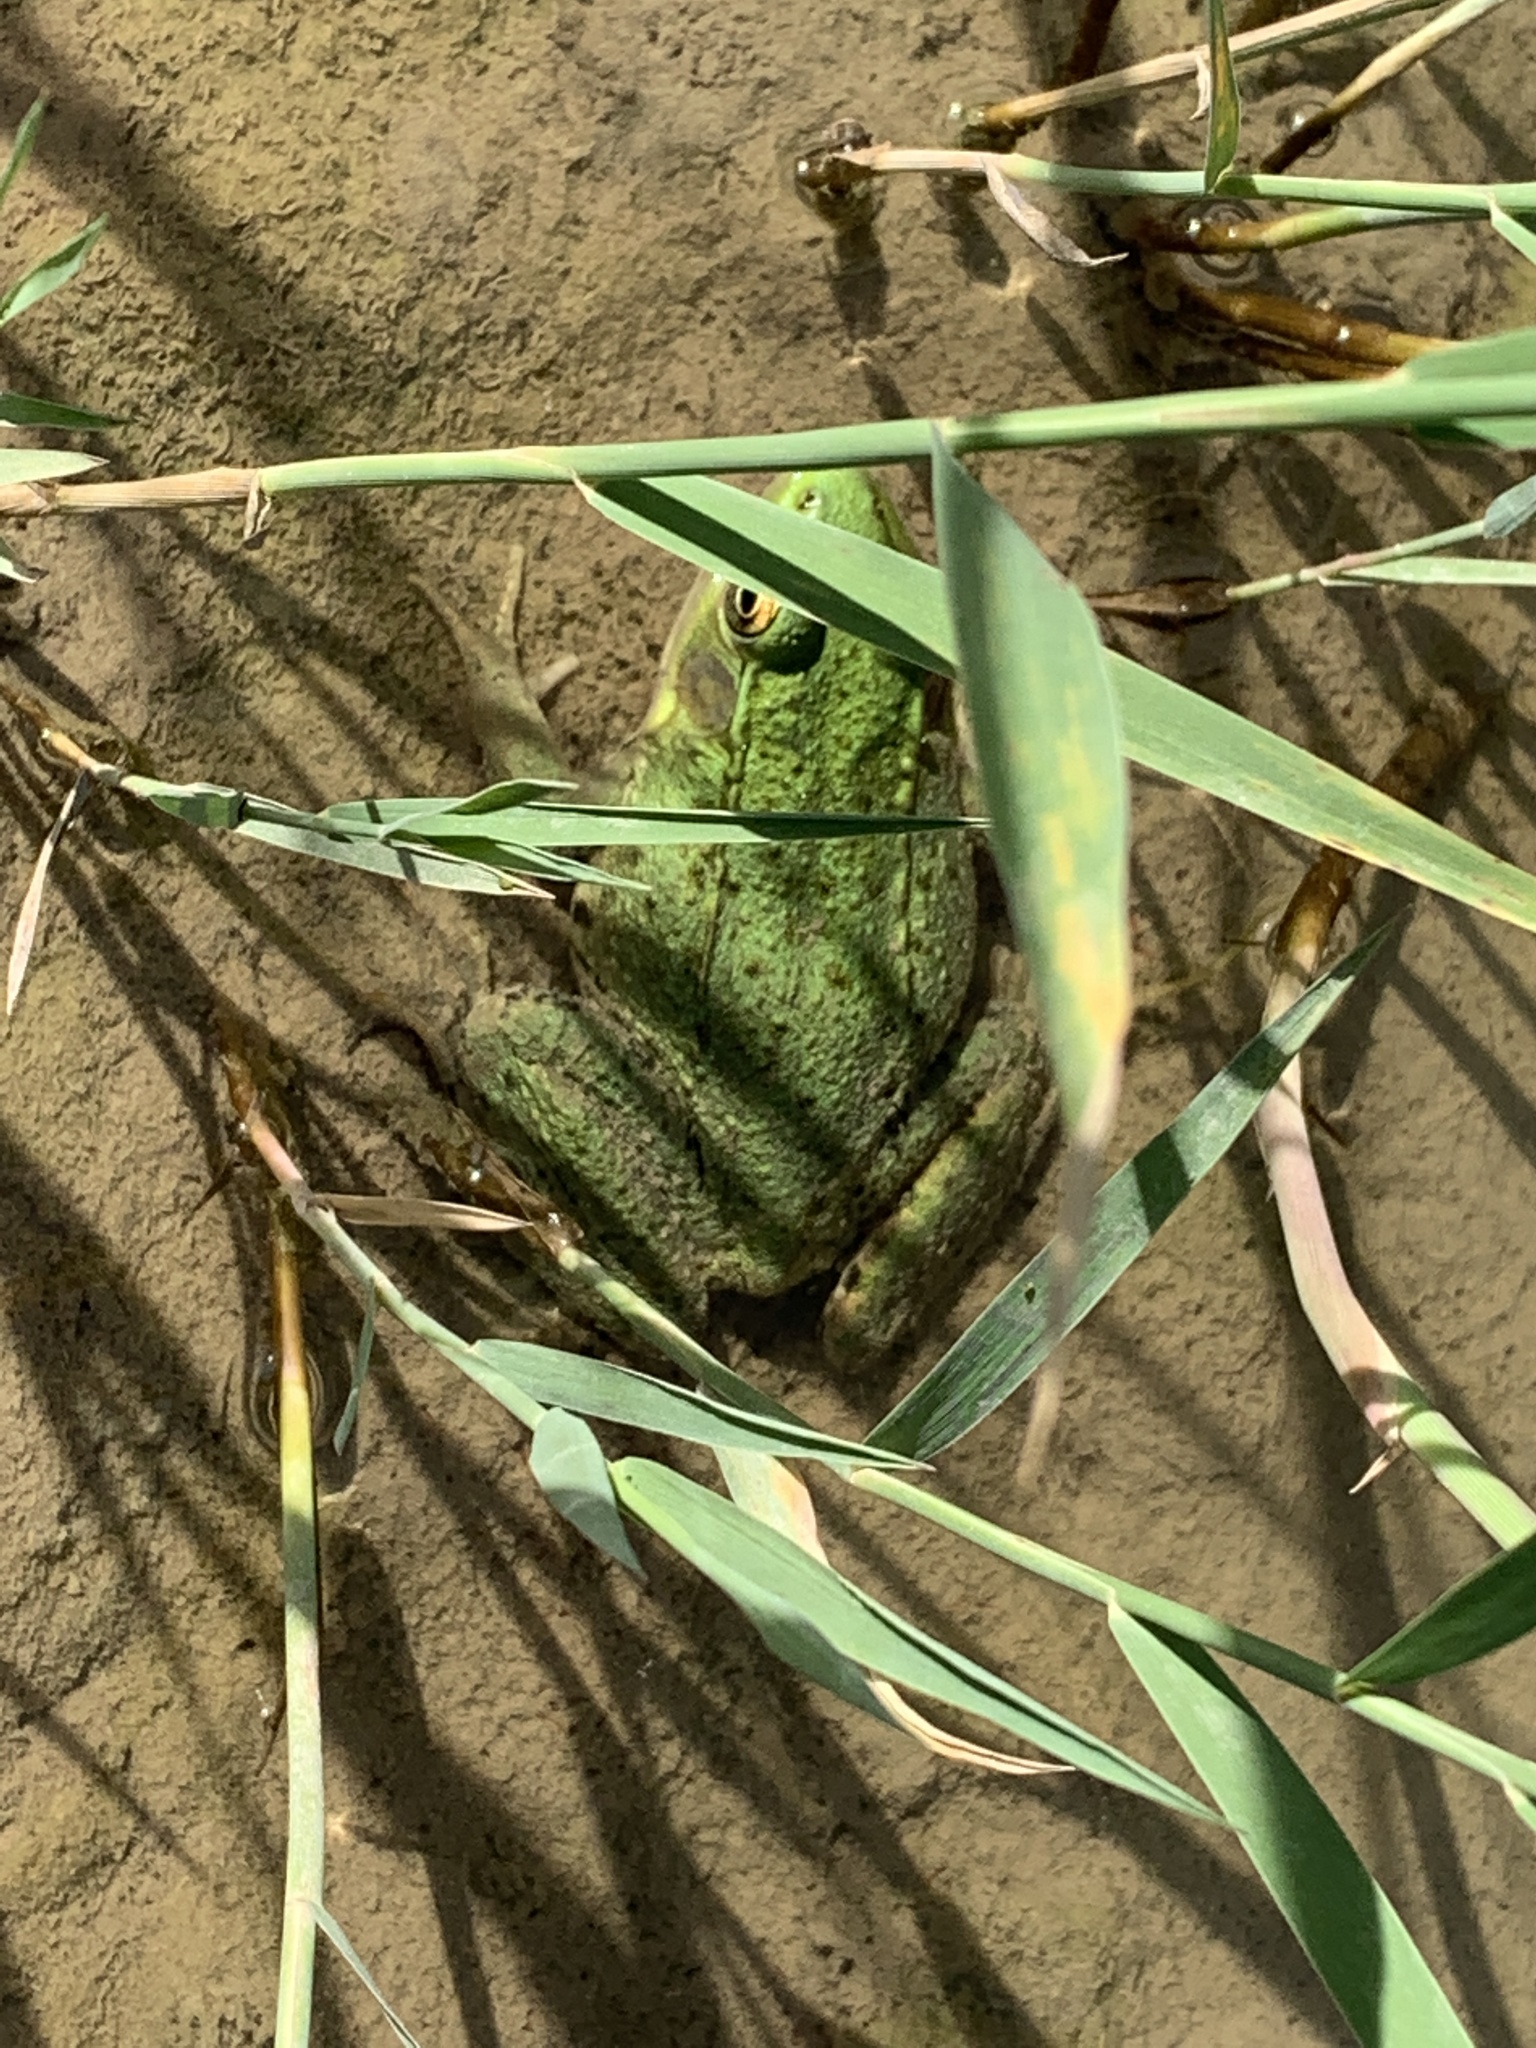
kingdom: Animalia
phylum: Chordata
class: Amphibia
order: Anura
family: Ranidae
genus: Lithobates
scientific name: Lithobates clamitans
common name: Green frog
